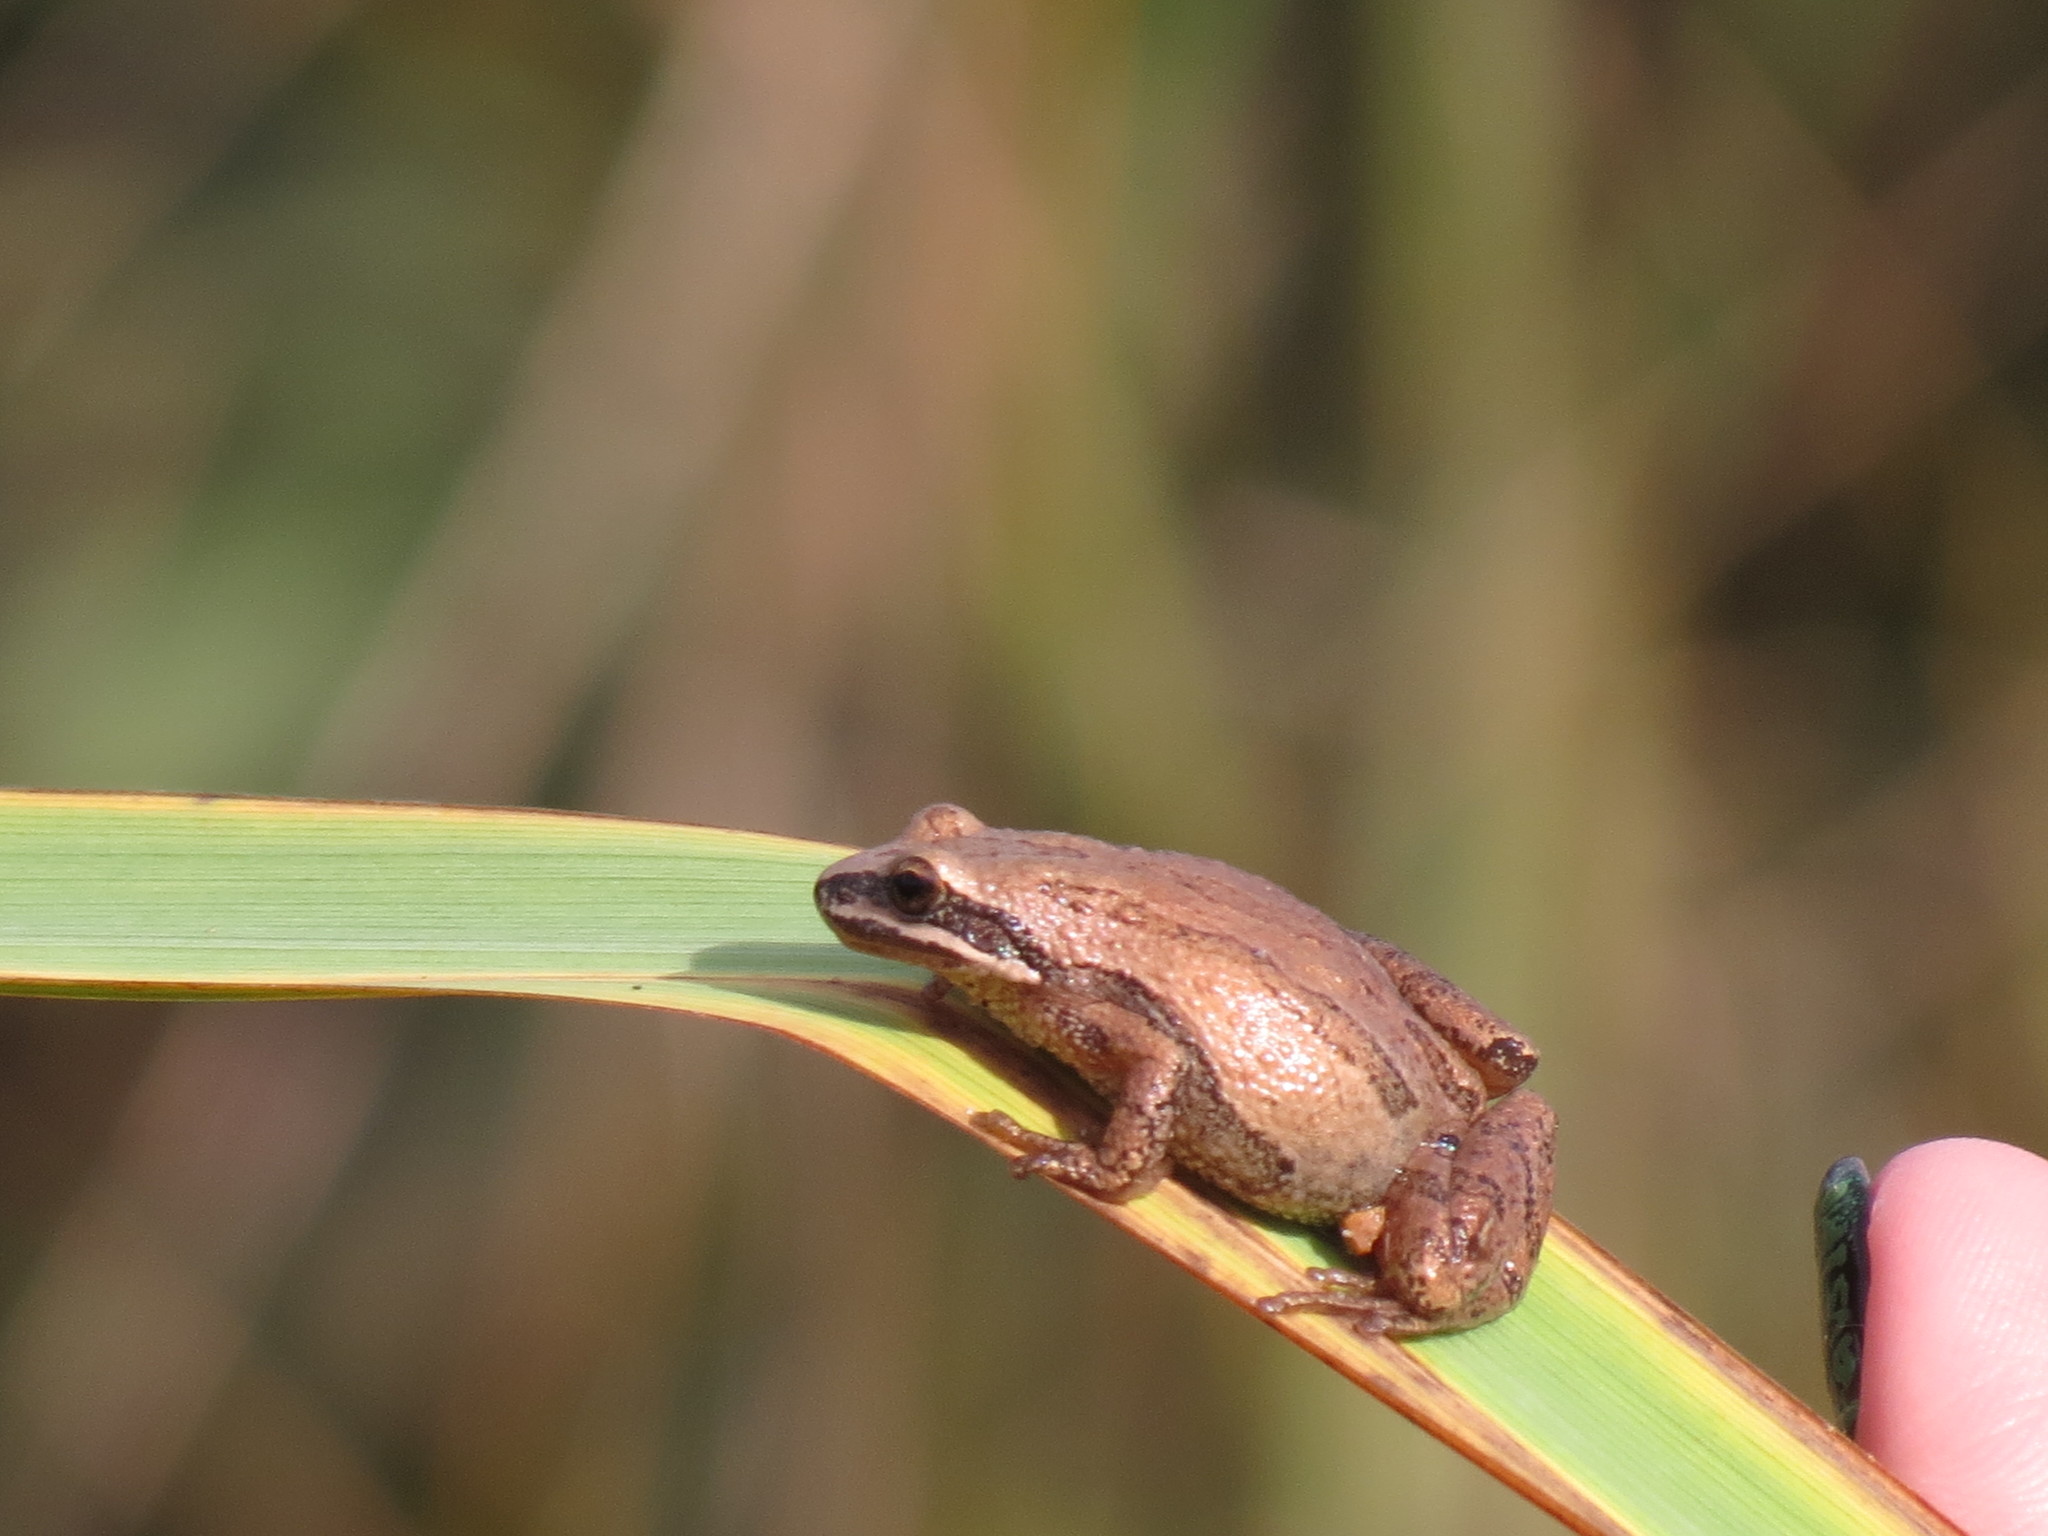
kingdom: Animalia
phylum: Chordata
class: Amphibia
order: Anura
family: Hylidae
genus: Pseudacris
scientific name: Pseudacris triseriata
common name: Western chorus frog
